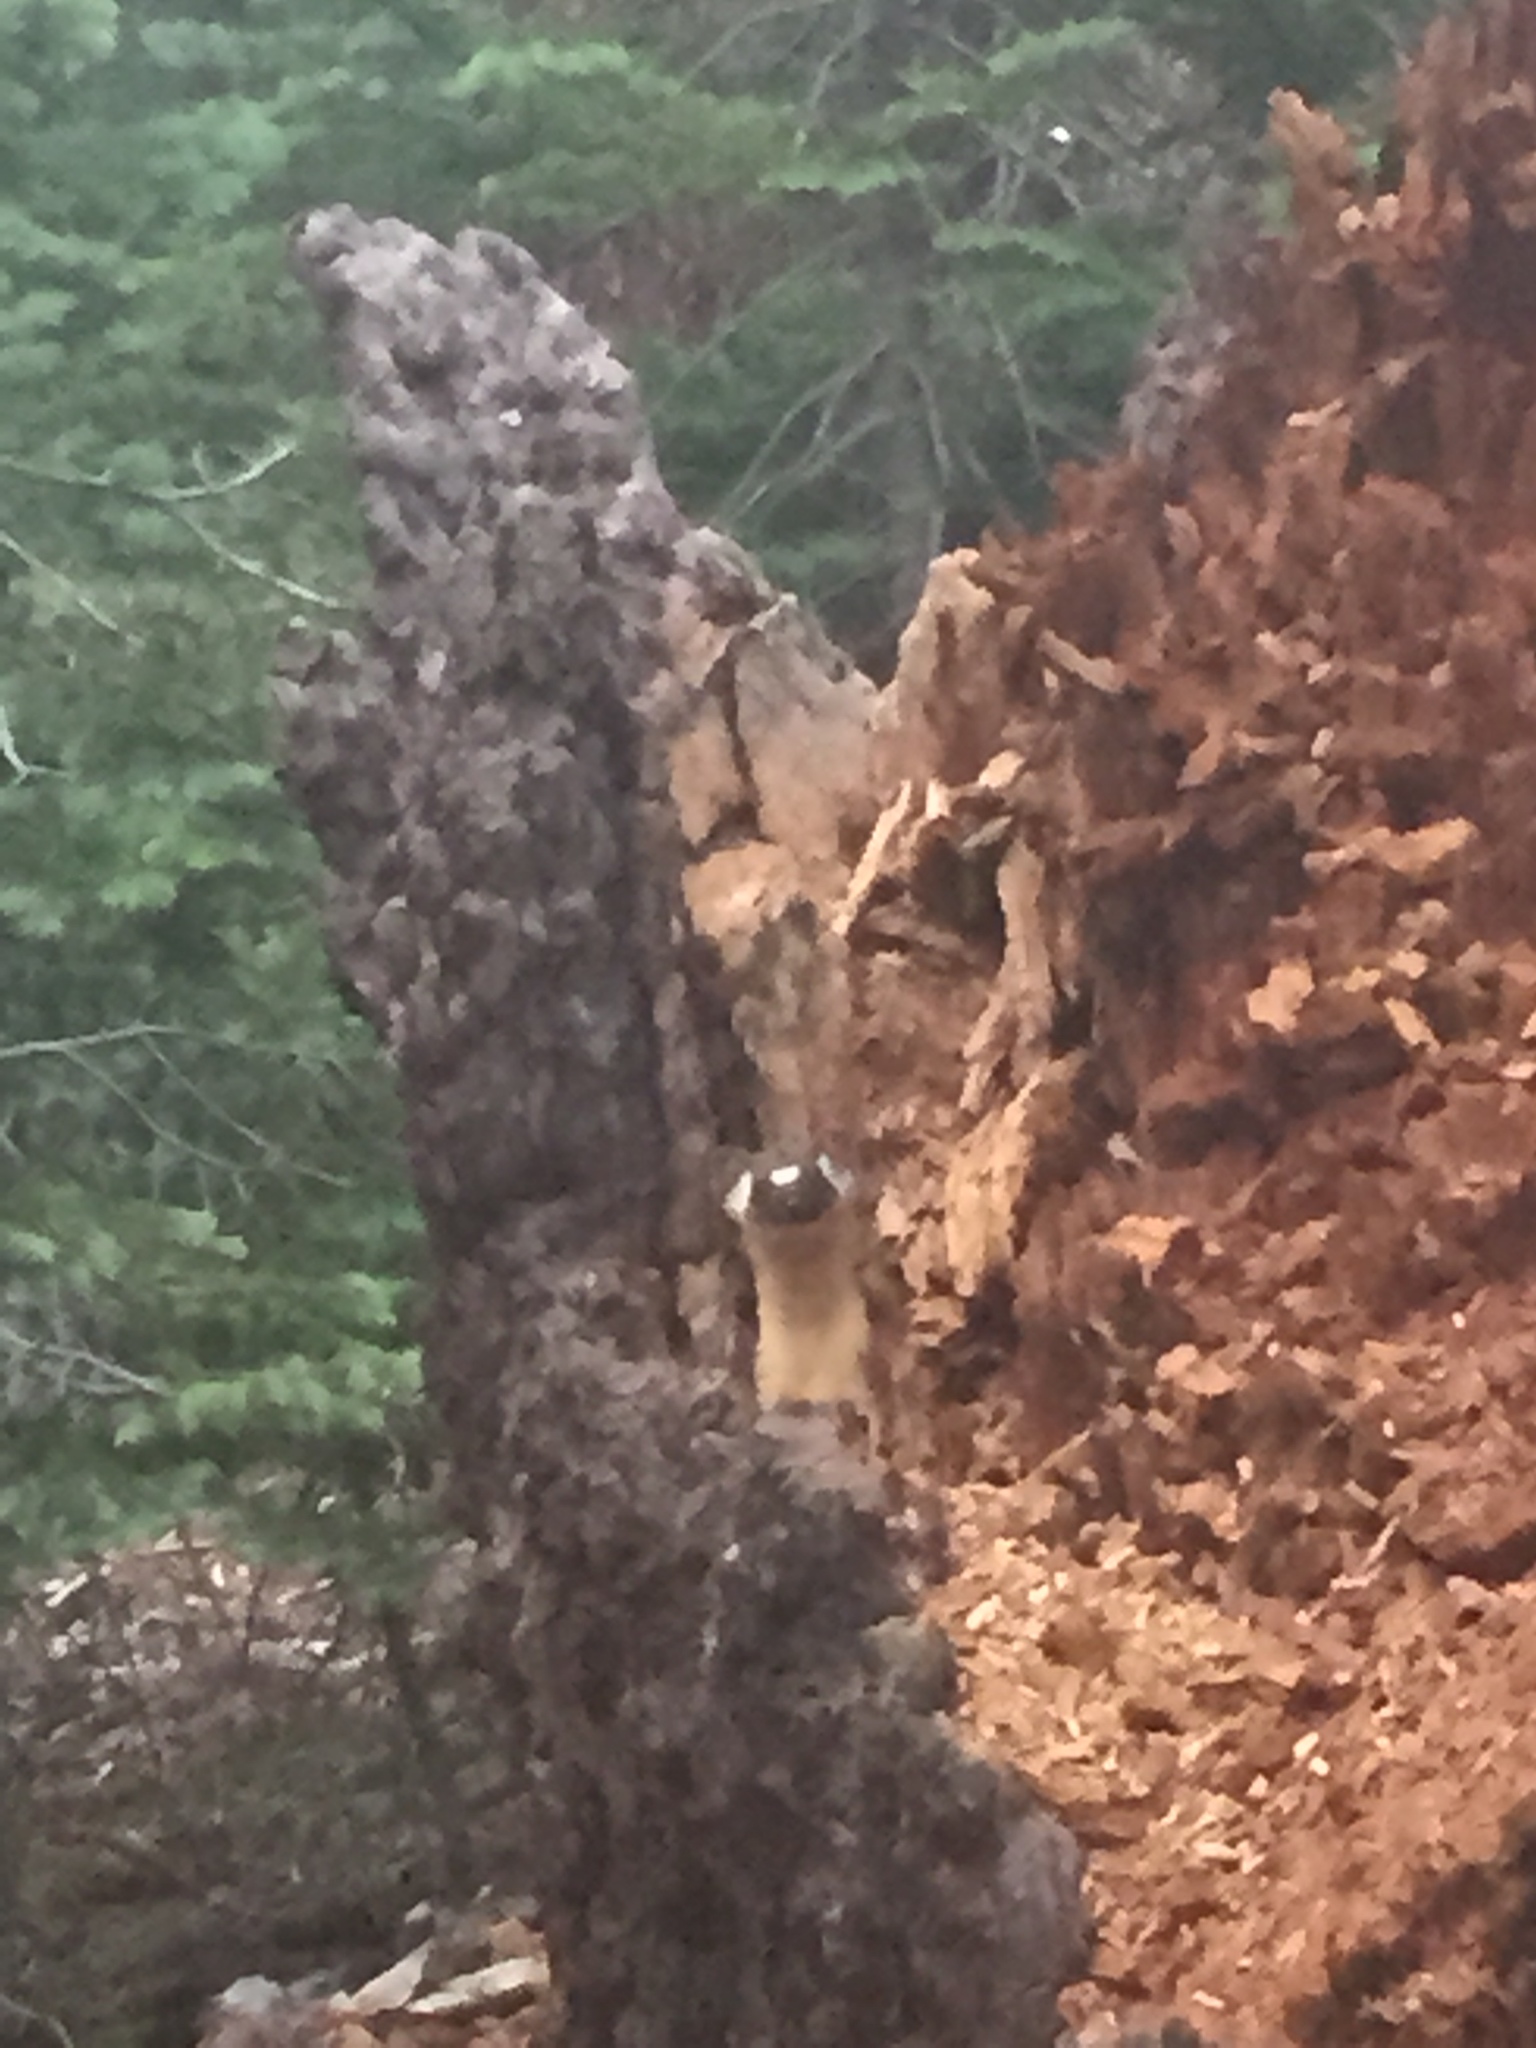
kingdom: Animalia
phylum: Chordata
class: Mammalia
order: Carnivora
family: Mustelidae
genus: Mustela
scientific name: Mustela
